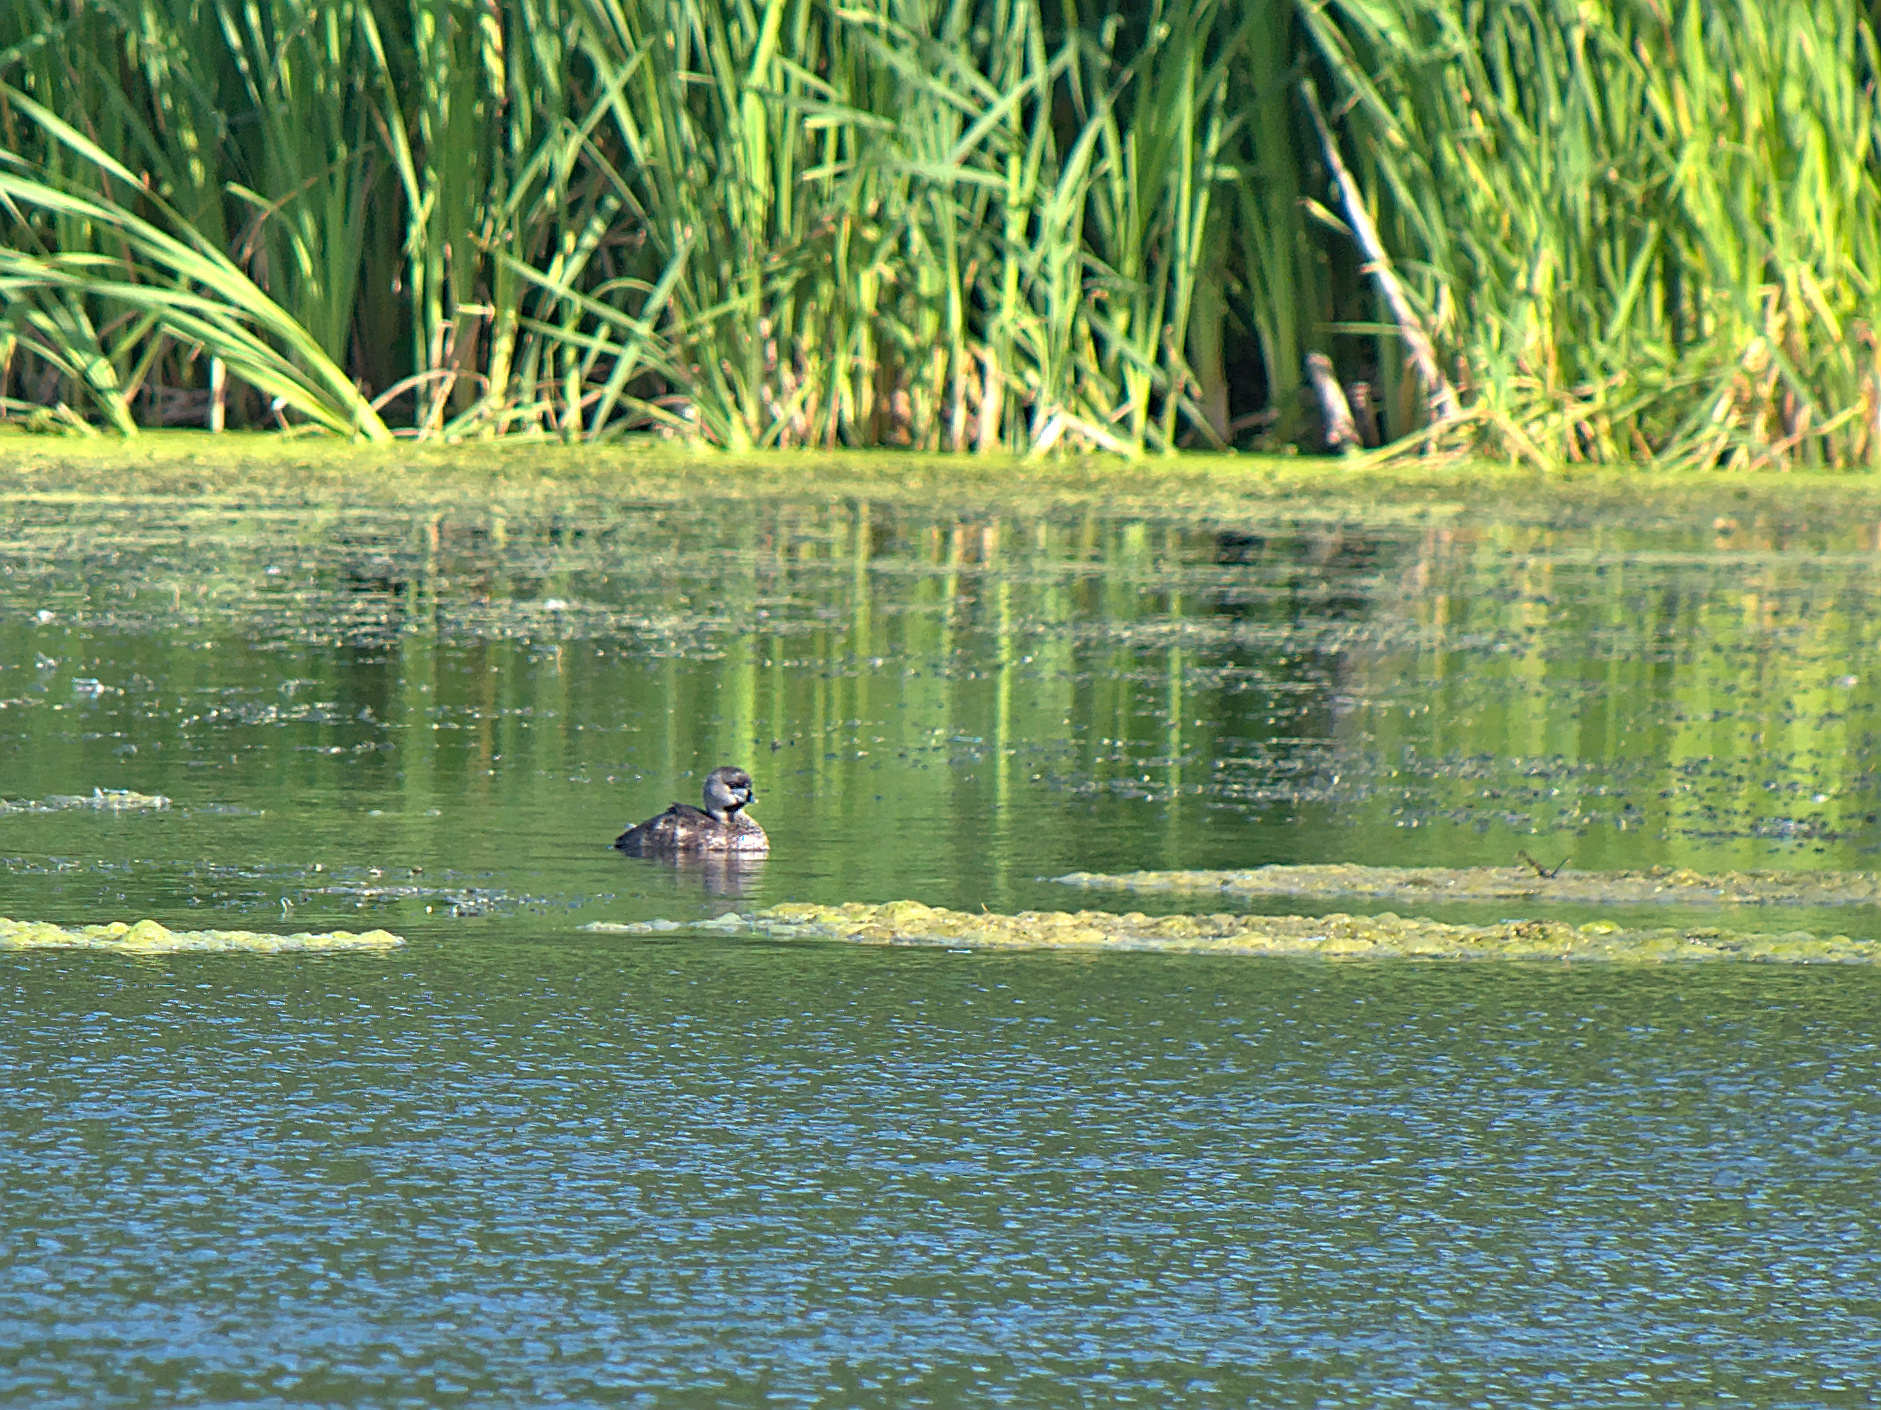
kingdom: Animalia
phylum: Chordata
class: Aves
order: Podicipediformes
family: Podicipedidae
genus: Podilymbus
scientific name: Podilymbus podiceps
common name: Pied-billed grebe
